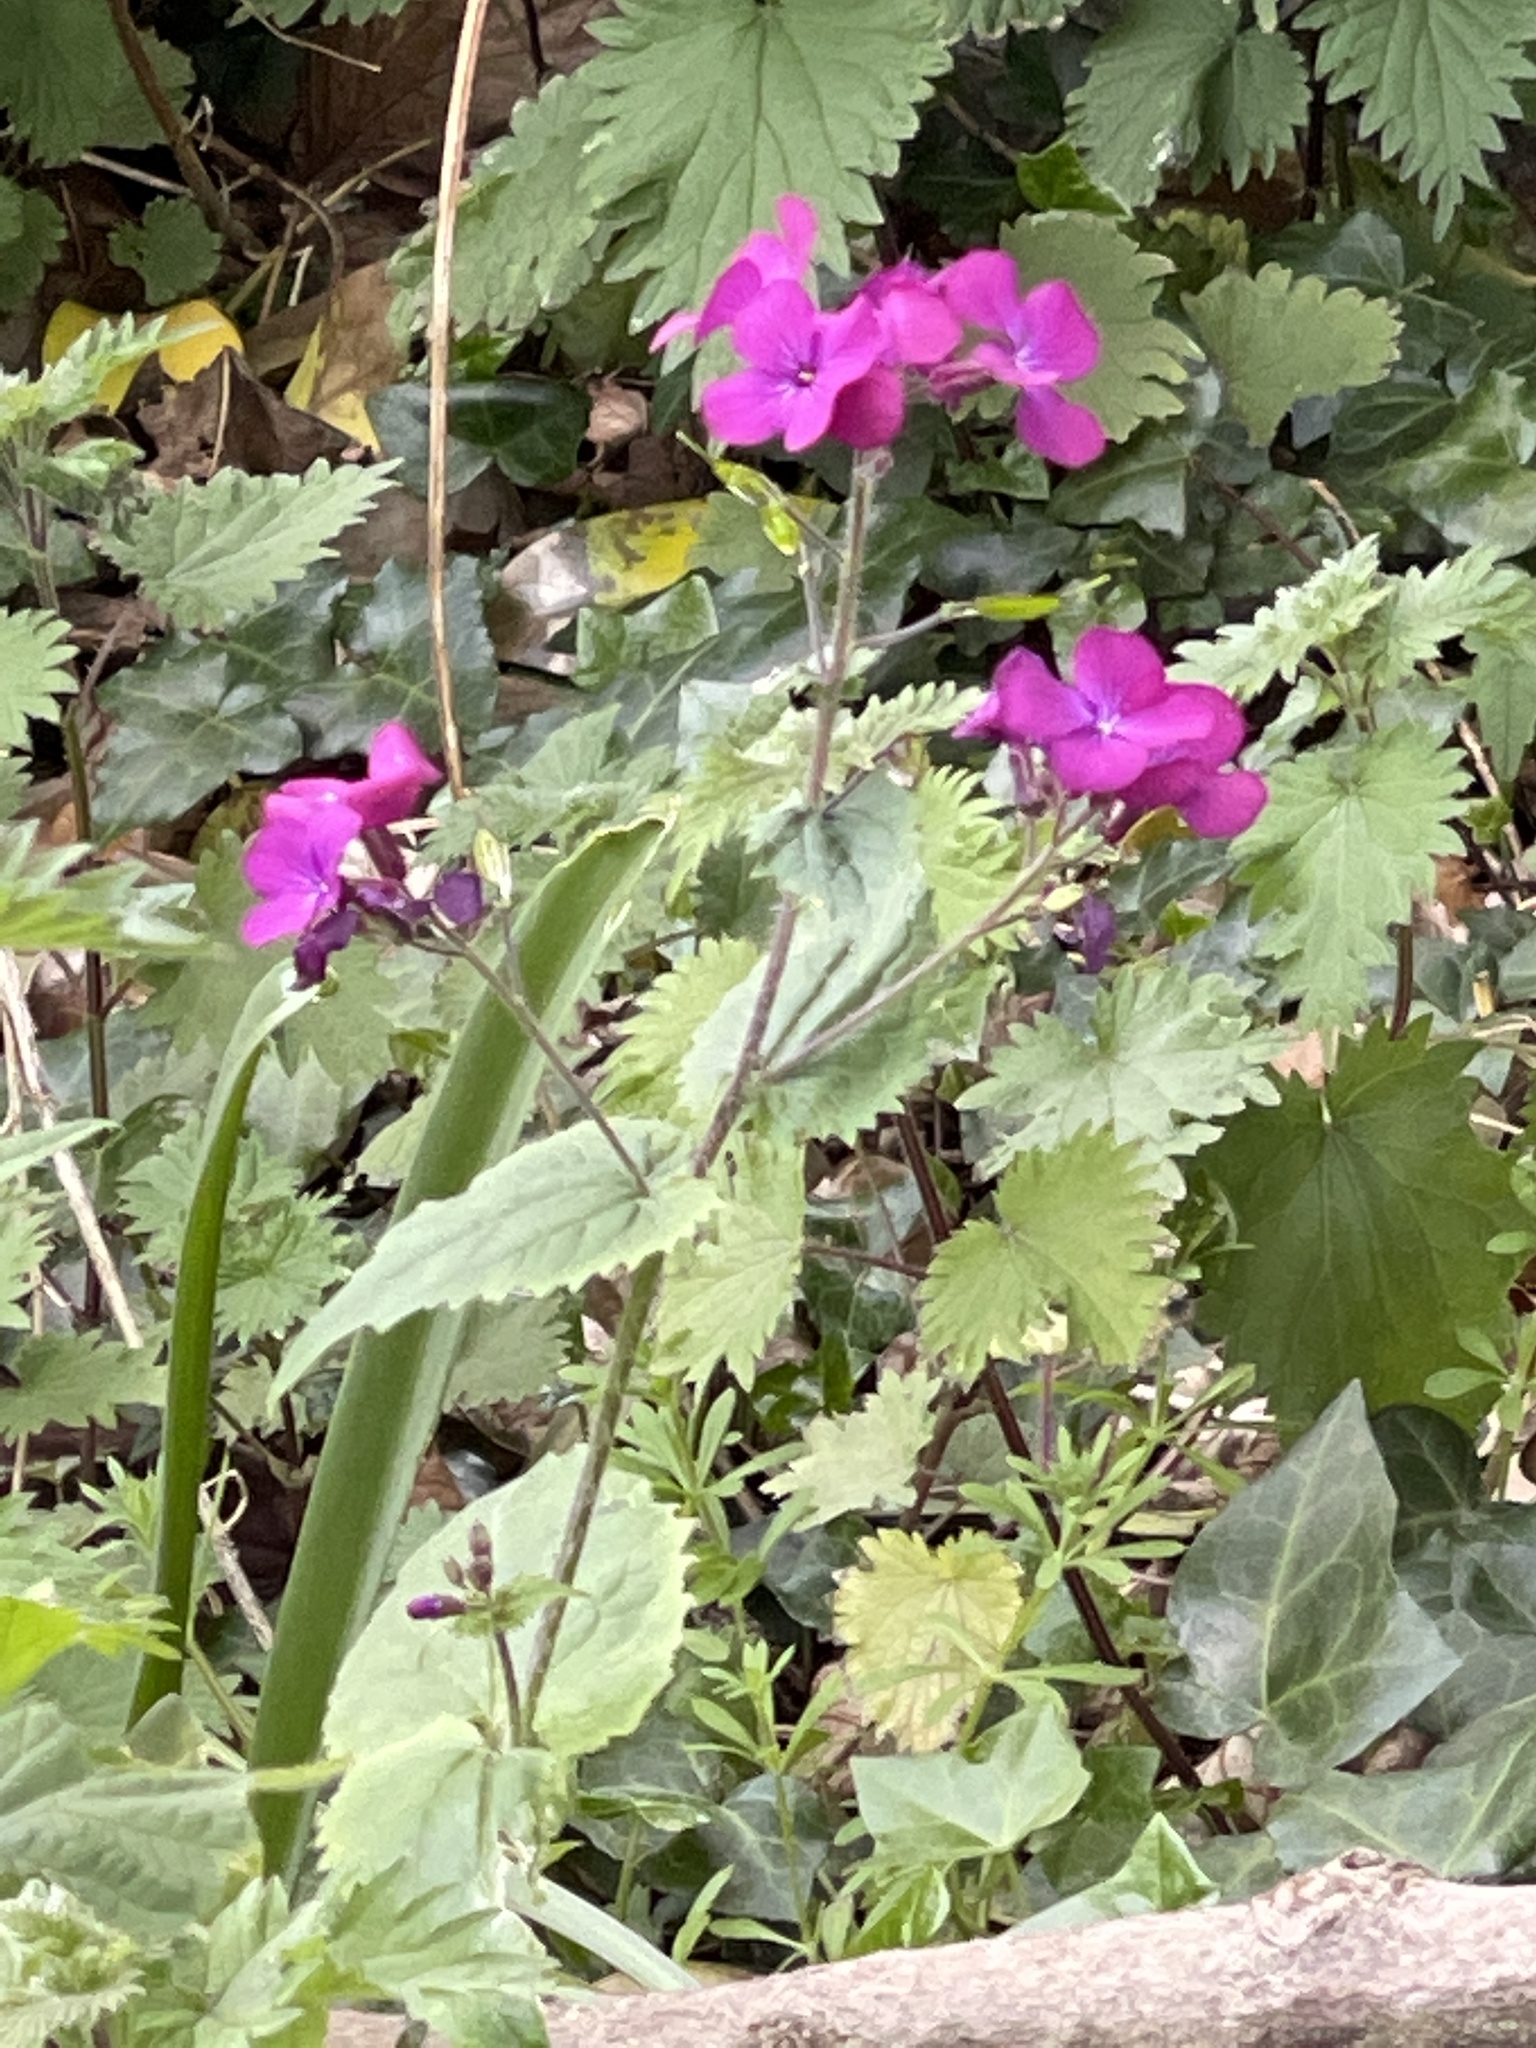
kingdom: Plantae
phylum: Tracheophyta
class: Magnoliopsida
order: Brassicales
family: Brassicaceae
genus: Lunaria
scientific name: Lunaria annua
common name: Honesty
